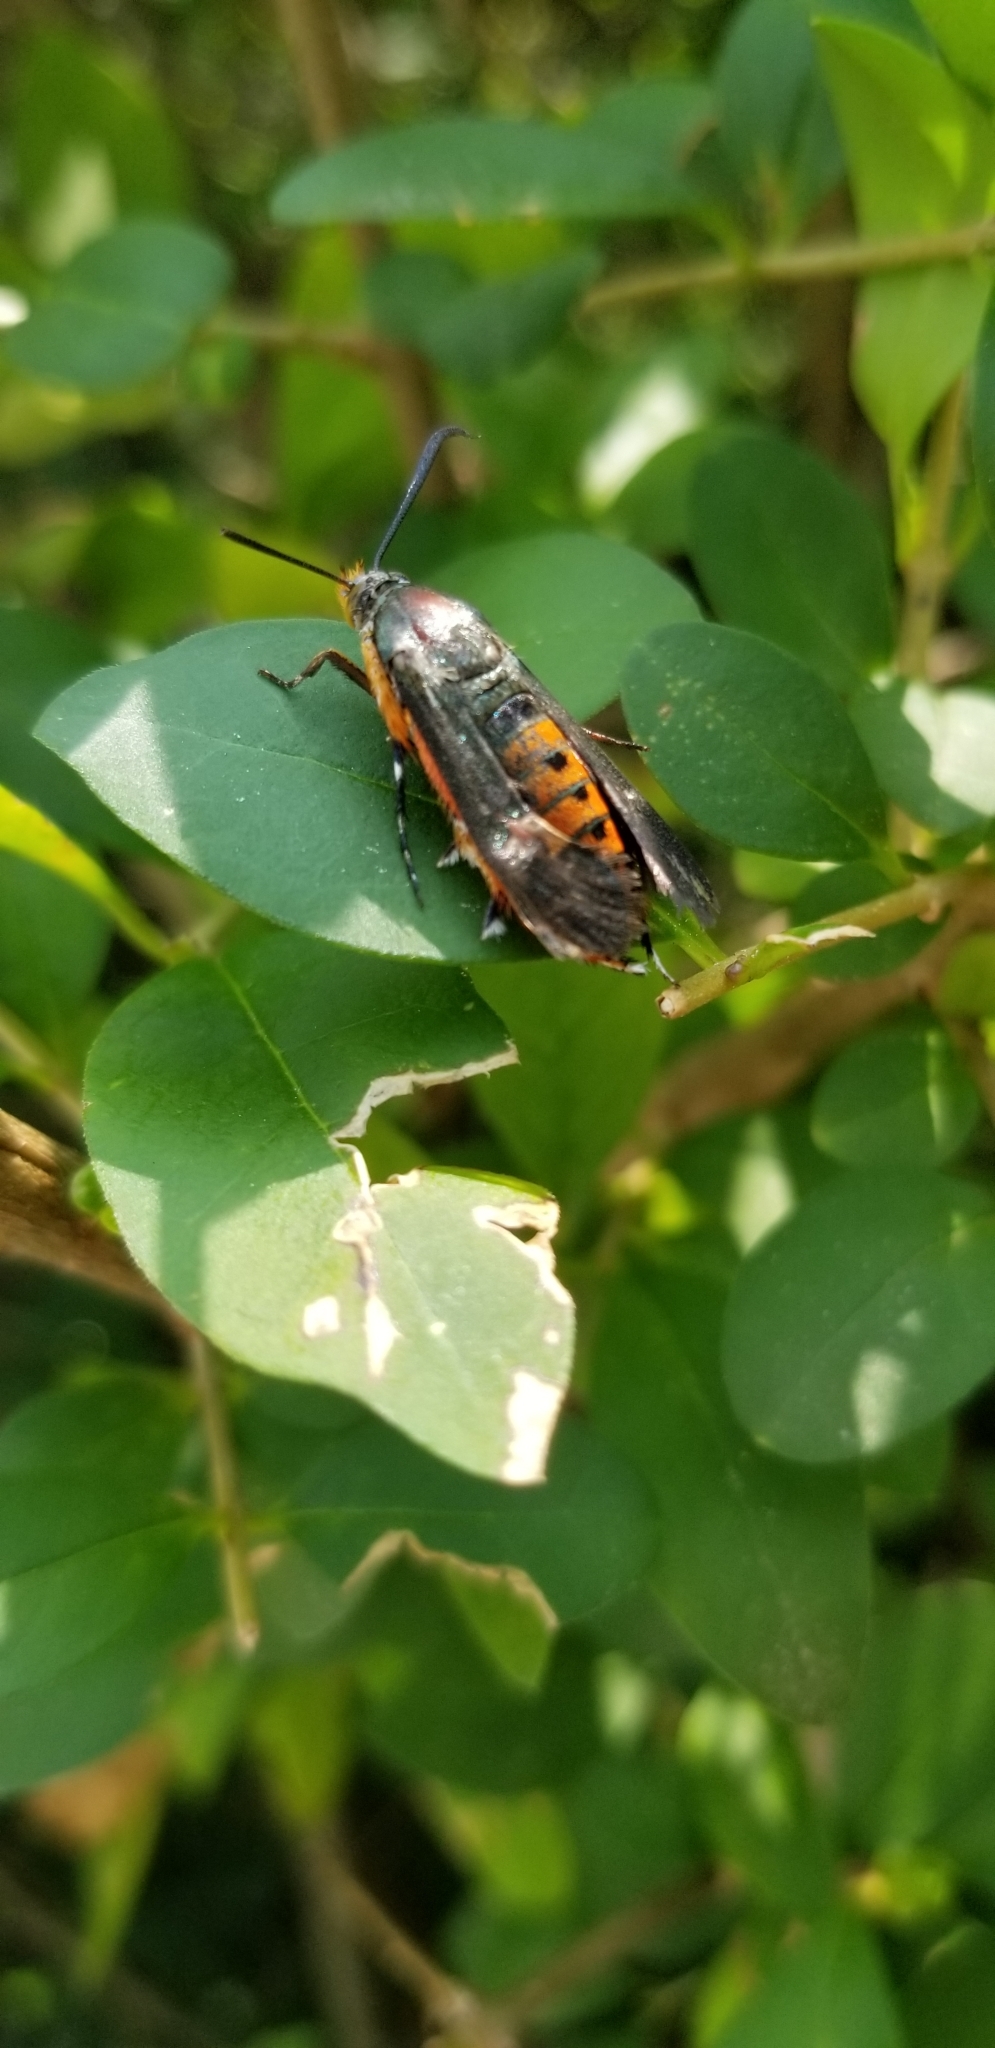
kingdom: Animalia
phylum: Arthropoda
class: Insecta
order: Lepidoptera
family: Sesiidae
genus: Eichlinia
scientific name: Eichlinia cucurbitae
